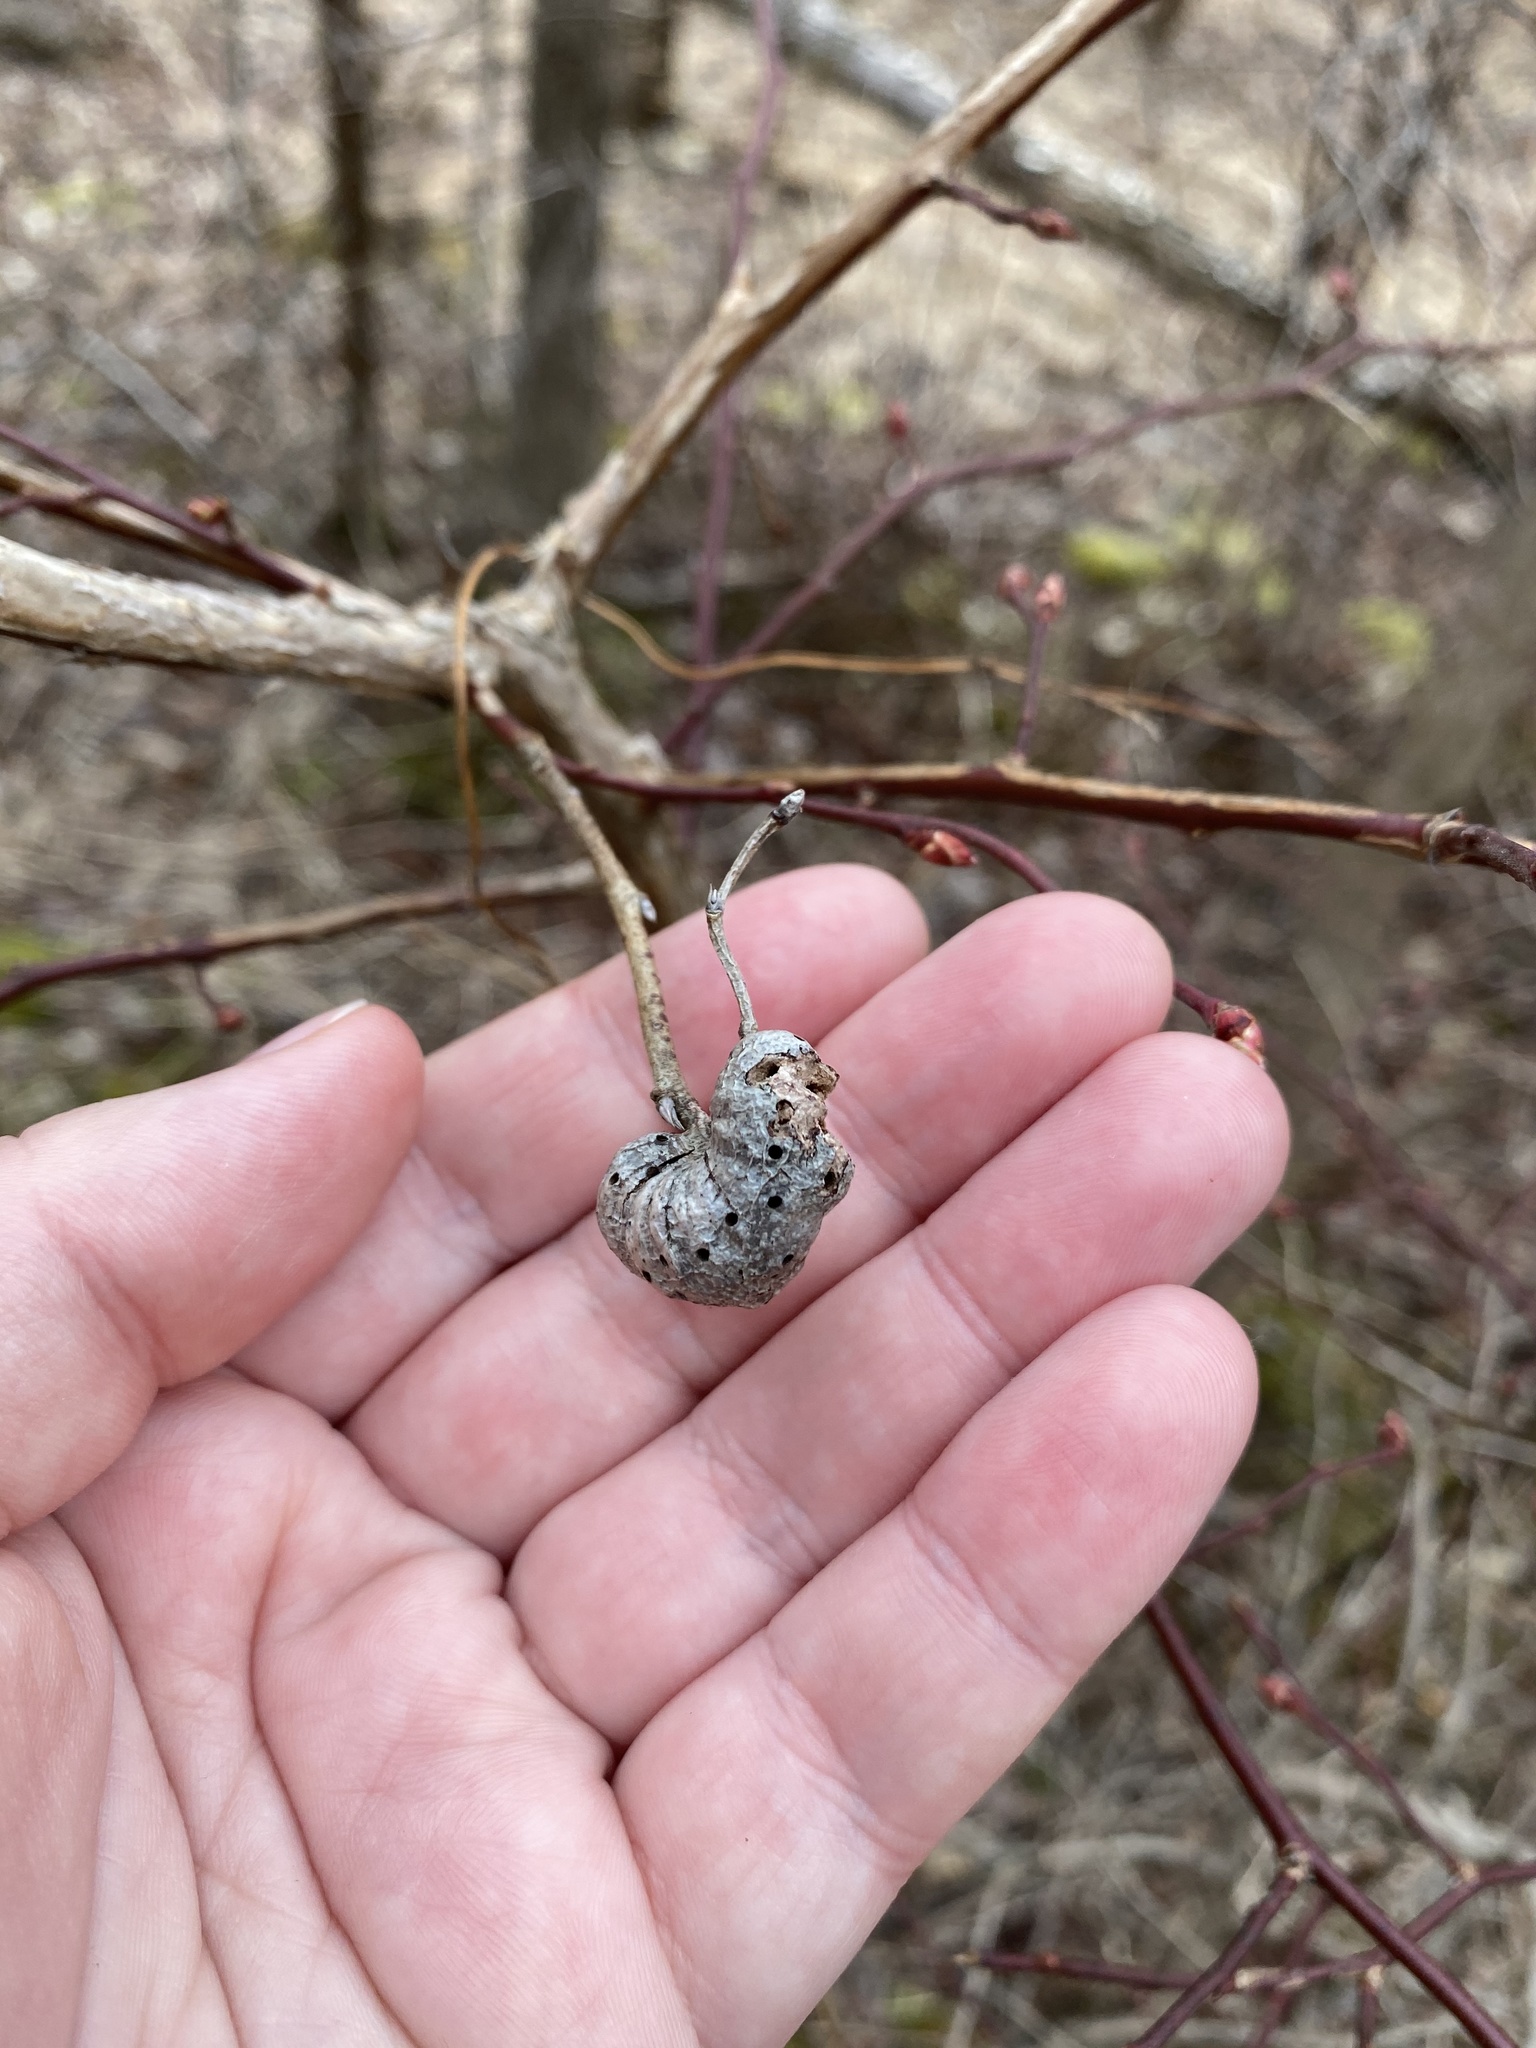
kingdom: Animalia
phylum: Arthropoda
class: Insecta
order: Hymenoptera
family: Pteromalidae
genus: Hemadas
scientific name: Hemadas nubilipennis
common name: Blueberry stem gall wasp
